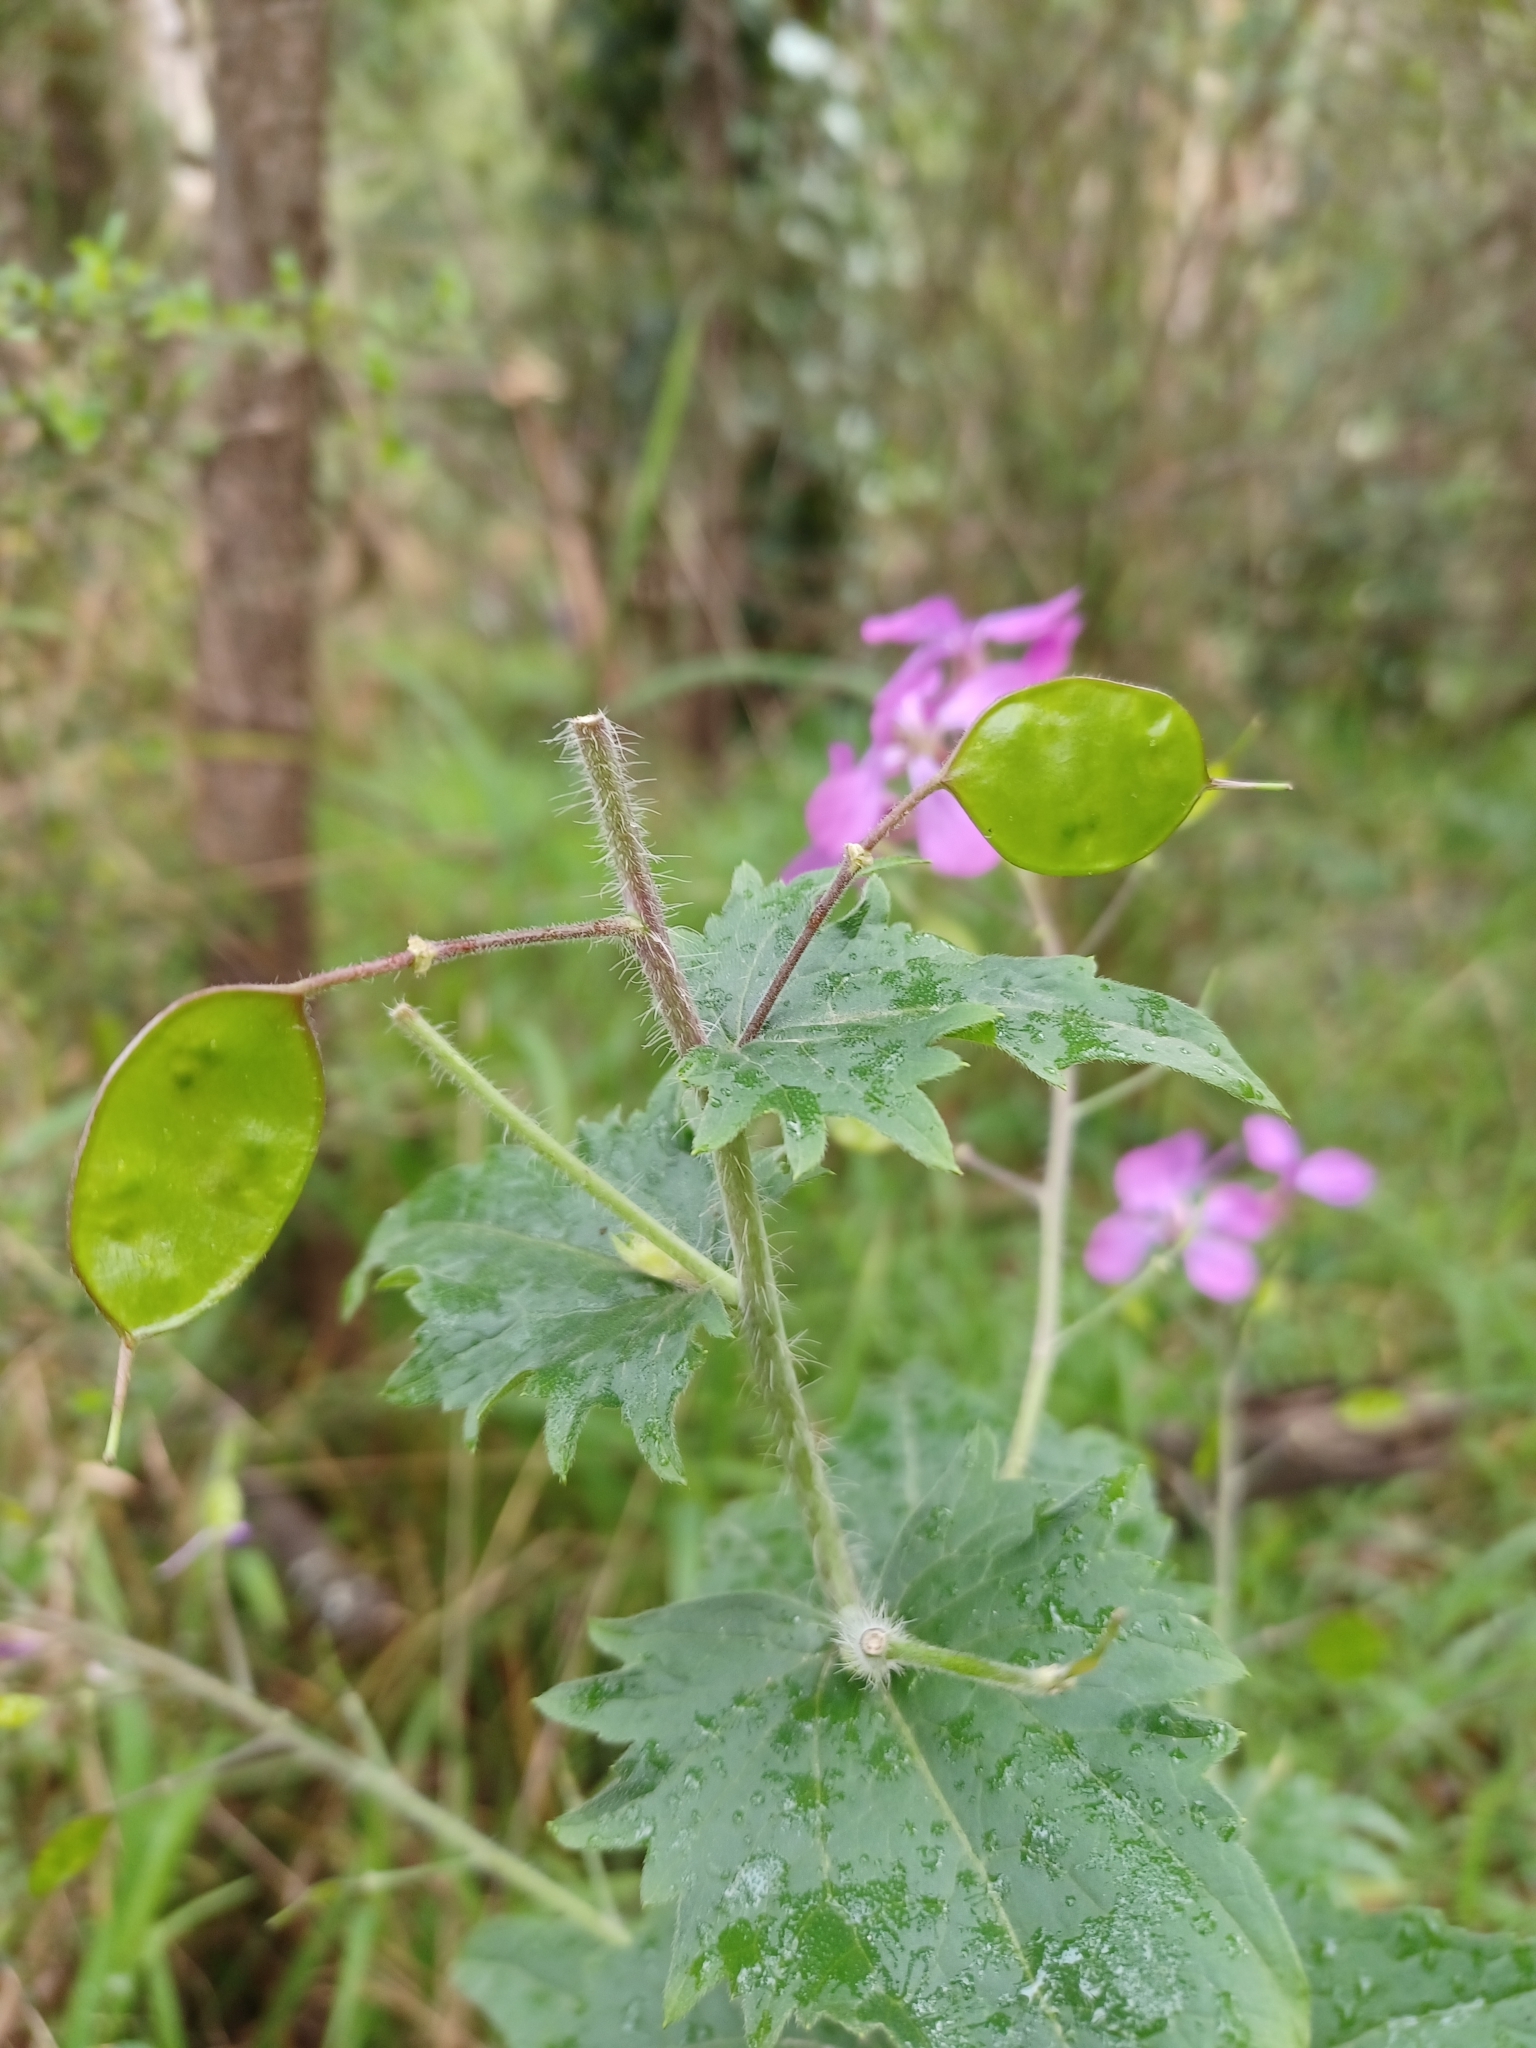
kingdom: Plantae
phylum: Tracheophyta
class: Magnoliopsida
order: Brassicales
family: Brassicaceae
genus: Lunaria
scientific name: Lunaria annua
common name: Honesty
